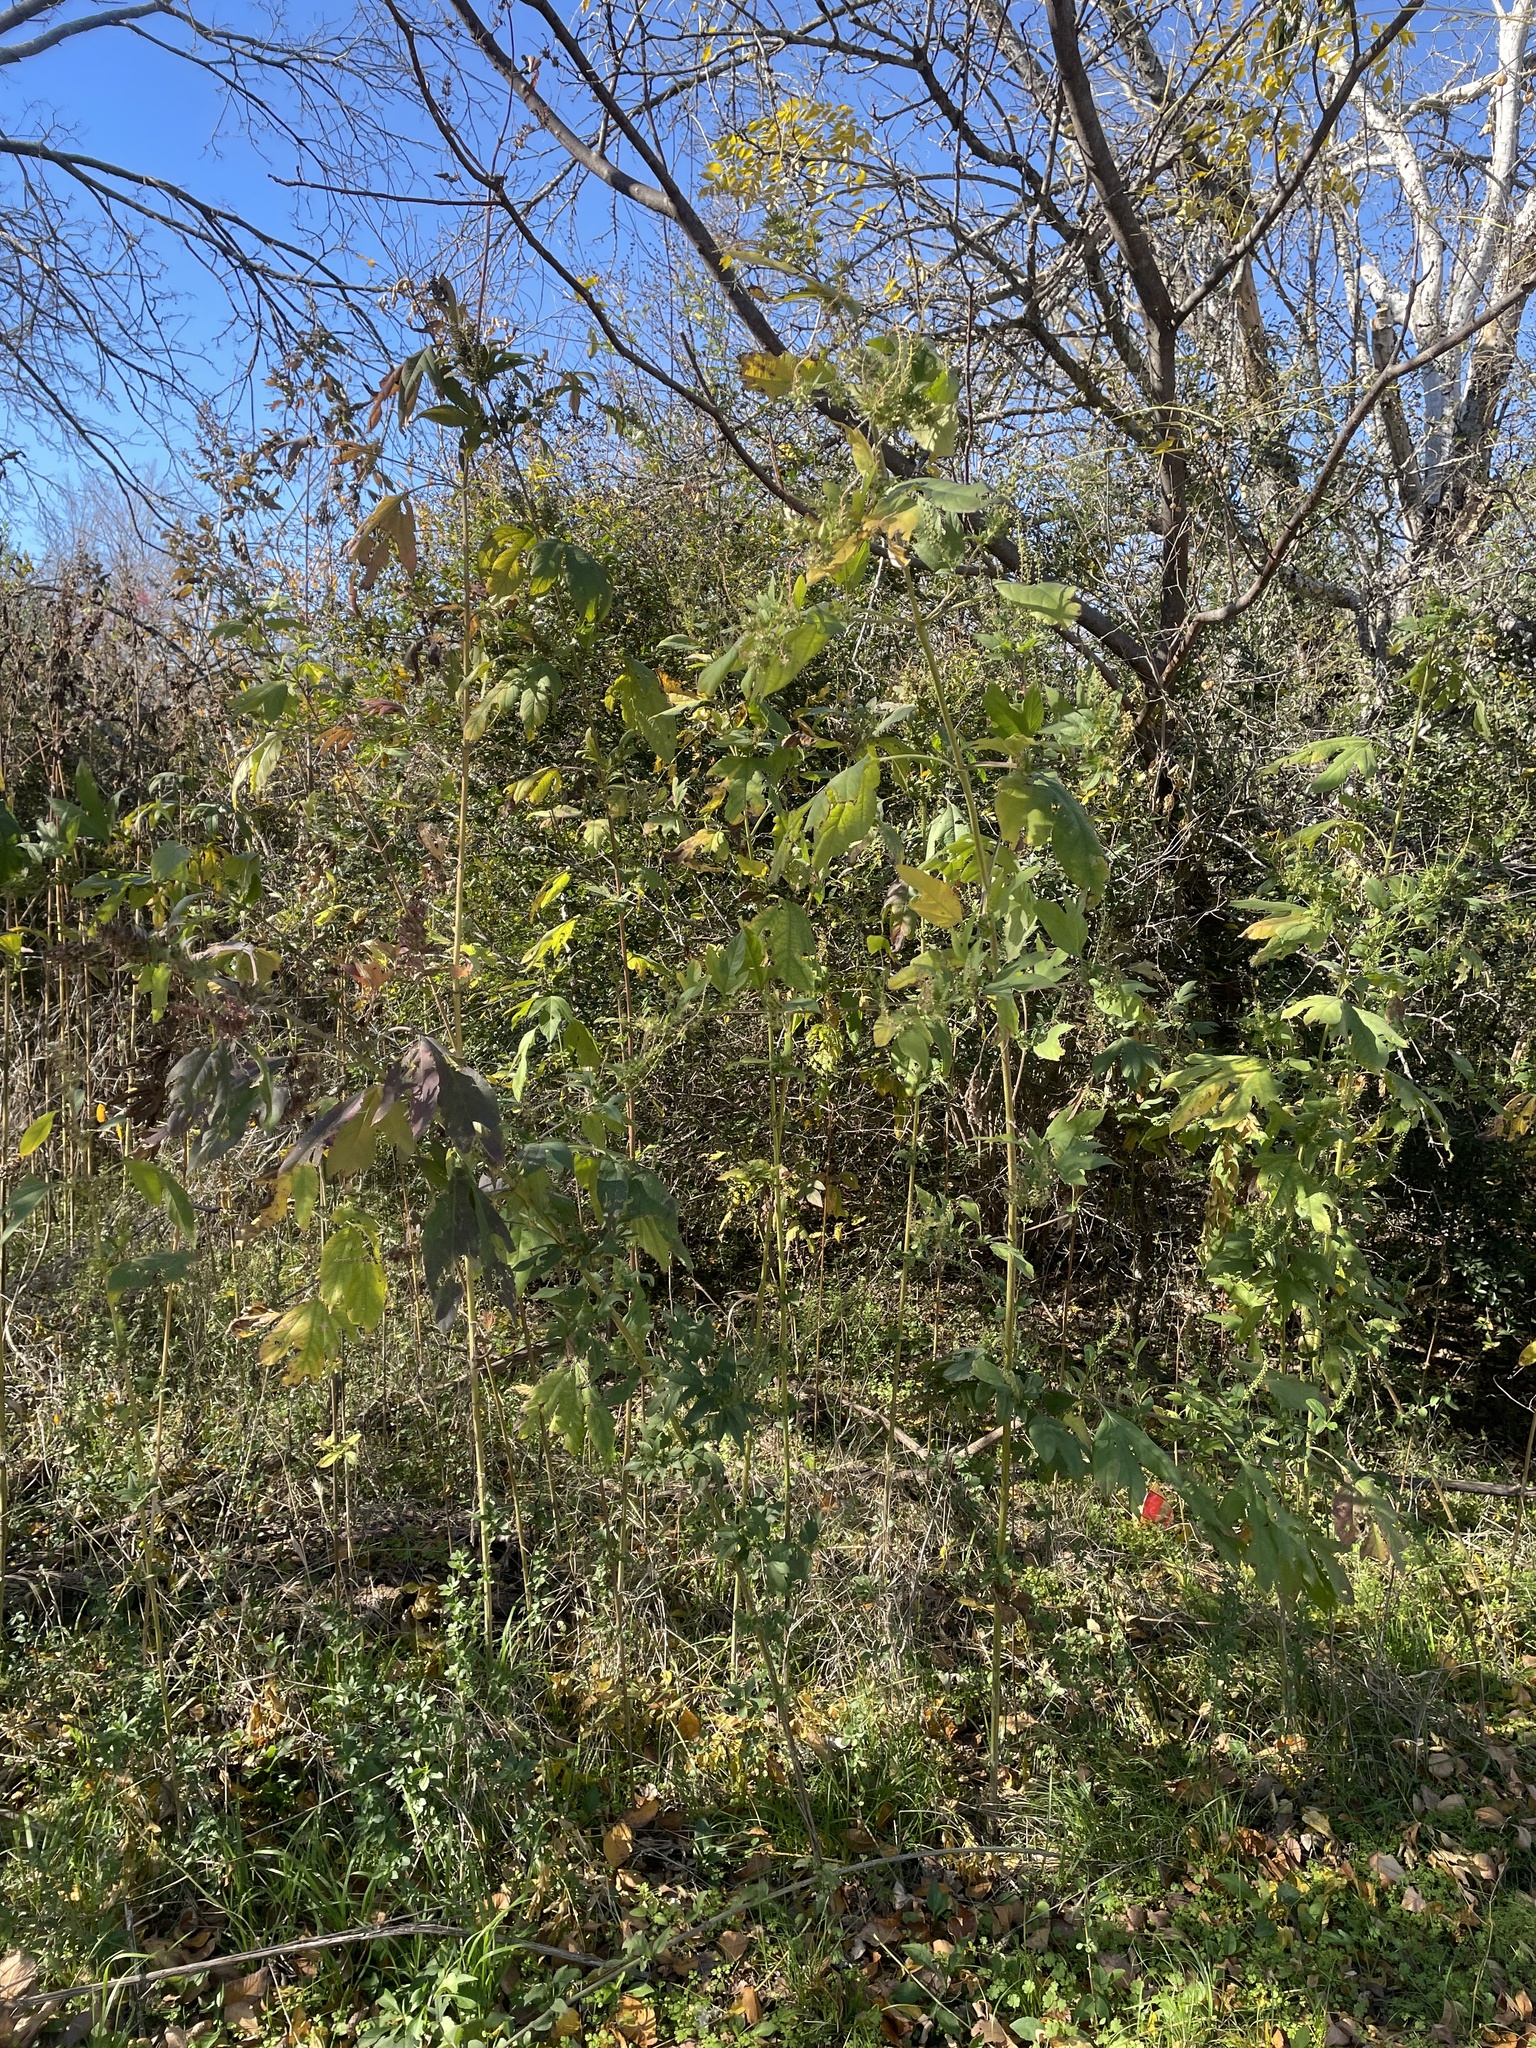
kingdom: Plantae
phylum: Tracheophyta
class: Magnoliopsida
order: Asterales
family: Asteraceae
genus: Ambrosia
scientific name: Ambrosia trifida
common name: Giant ragweed
